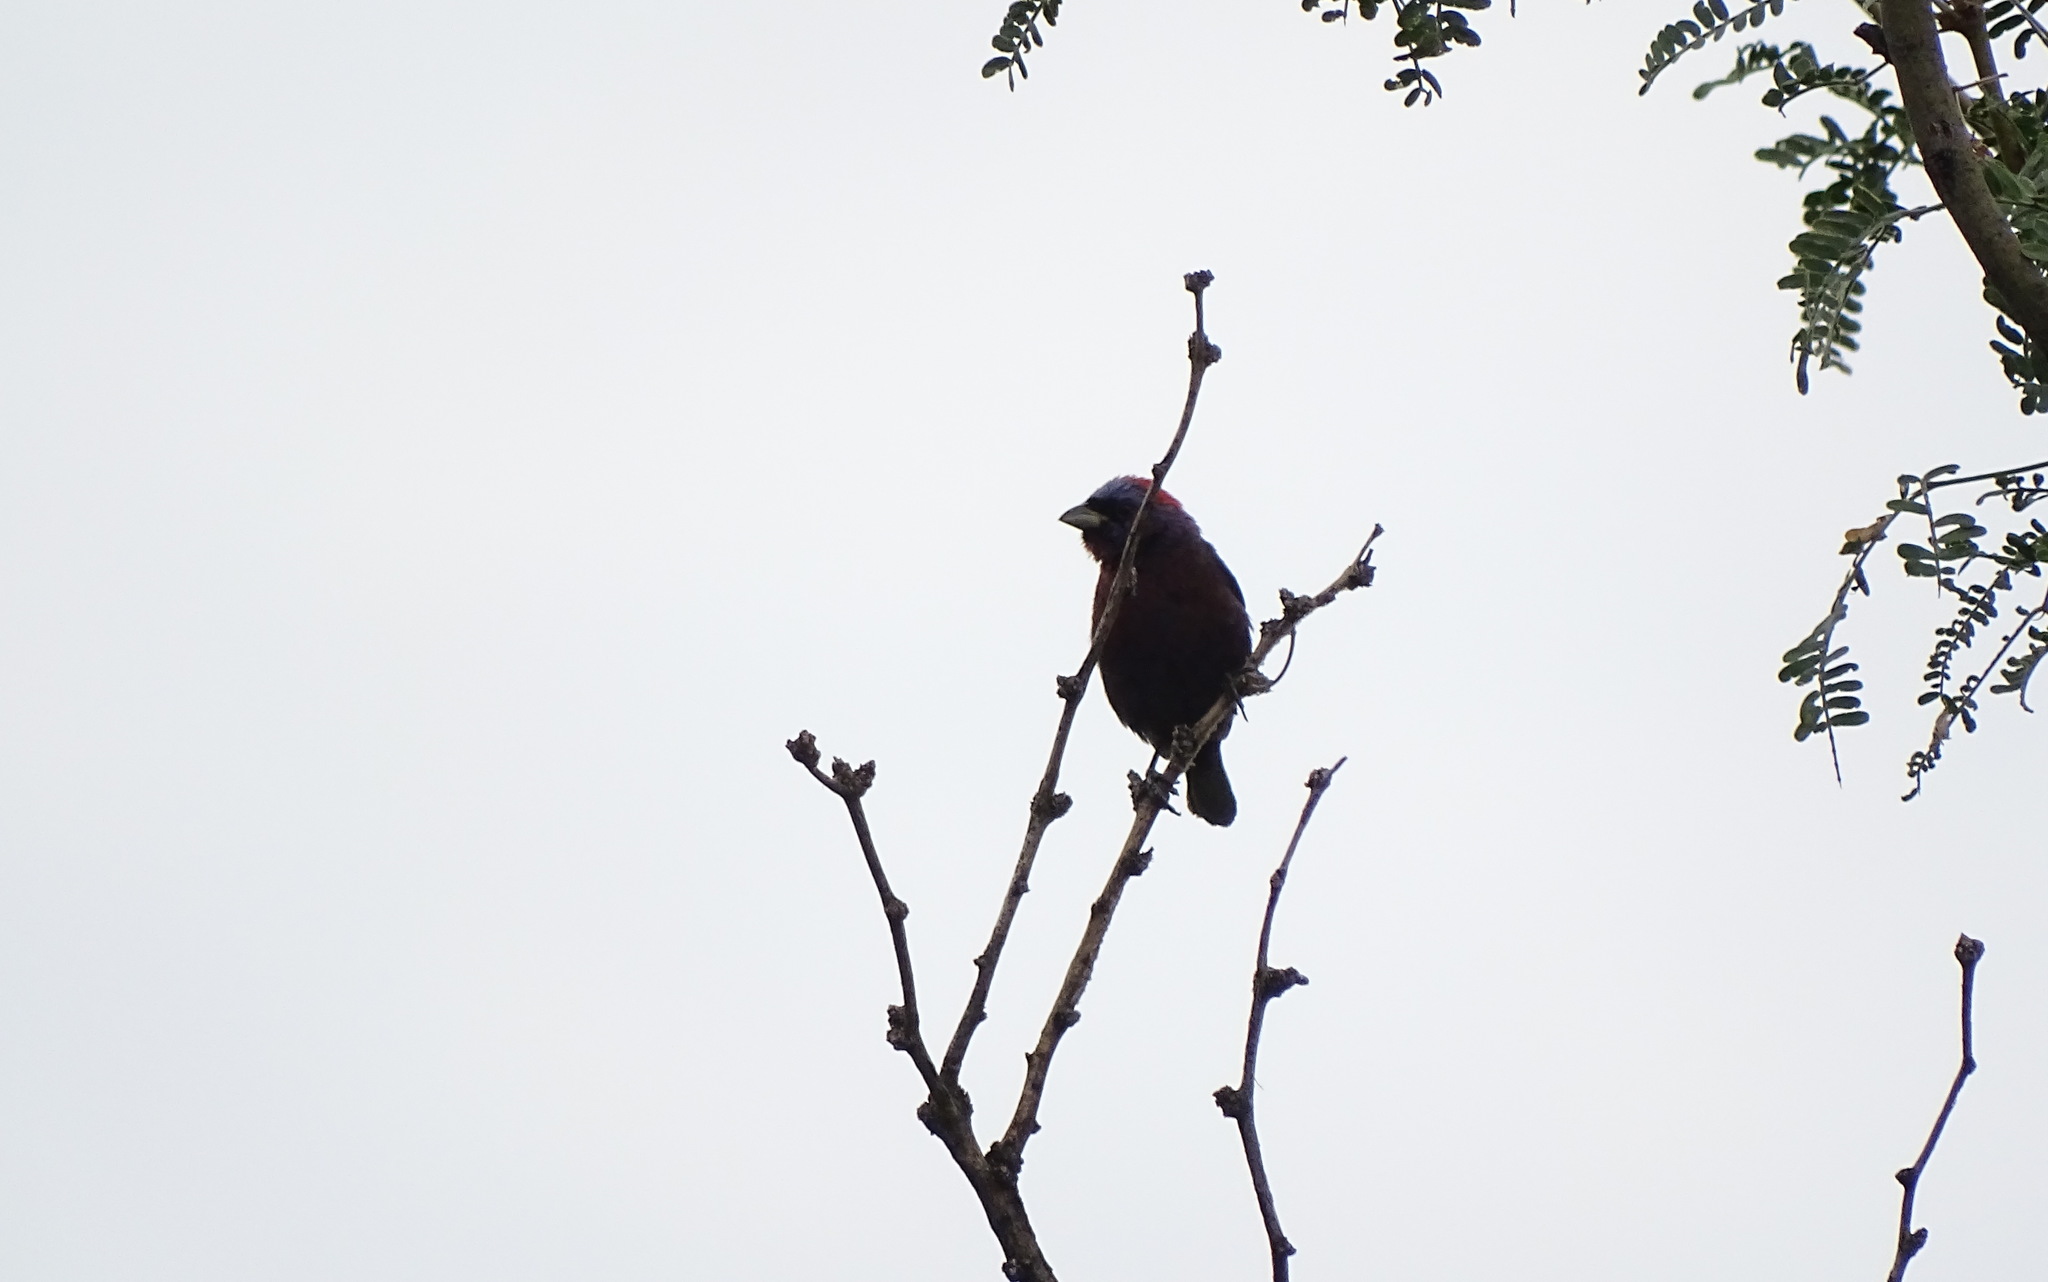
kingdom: Animalia
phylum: Chordata
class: Aves
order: Passeriformes
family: Cardinalidae
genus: Passerina
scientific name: Passerina versicolor
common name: Varied bunting
